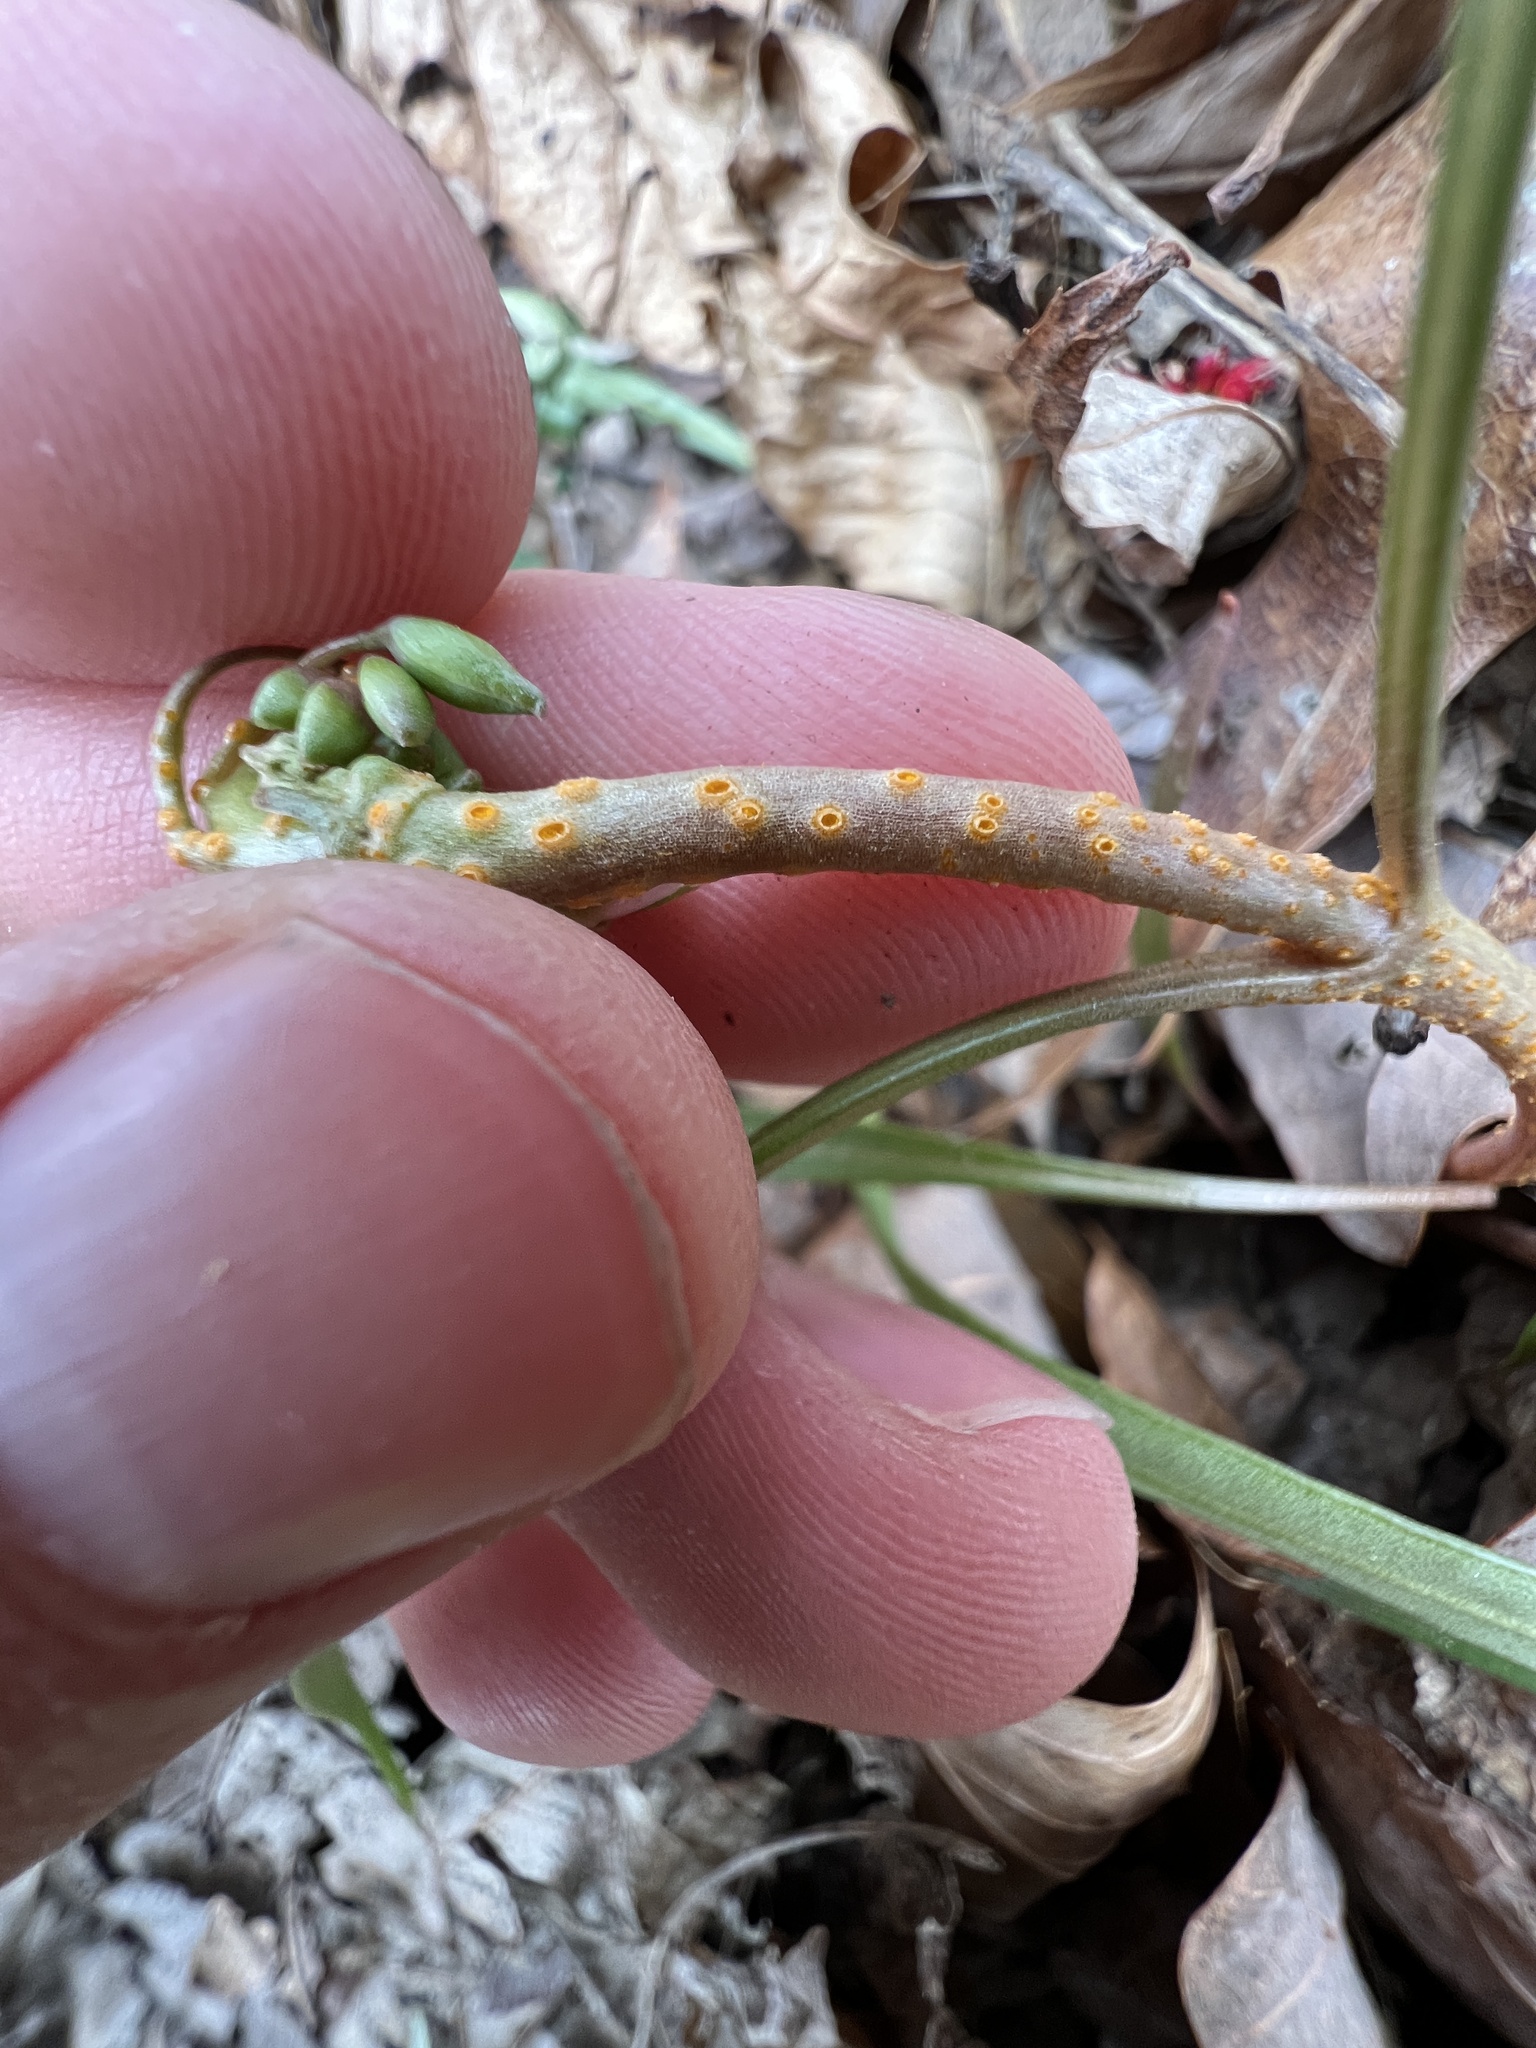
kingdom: Fungi
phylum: Basidiomycota
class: Pucciniomycetes
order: Pucciniales
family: Pucciniaceae
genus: Puccinia
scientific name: Puccinia mariae-wilsoniae
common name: Spring beauty rust
